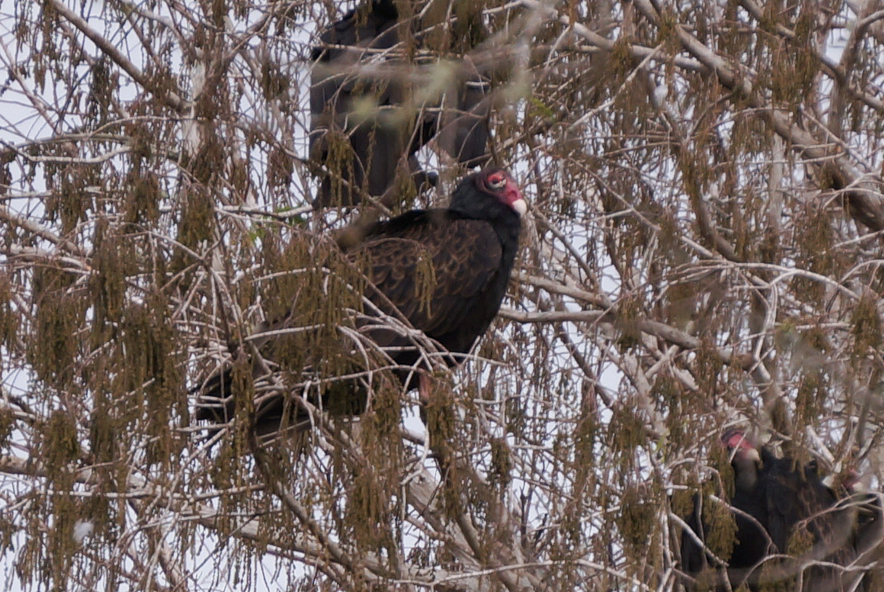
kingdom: Animalia
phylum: Chordata
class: Aves
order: Accipitriformes
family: Cathartidae
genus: Cathartes
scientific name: Cathartes aura
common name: Turkey vulture
